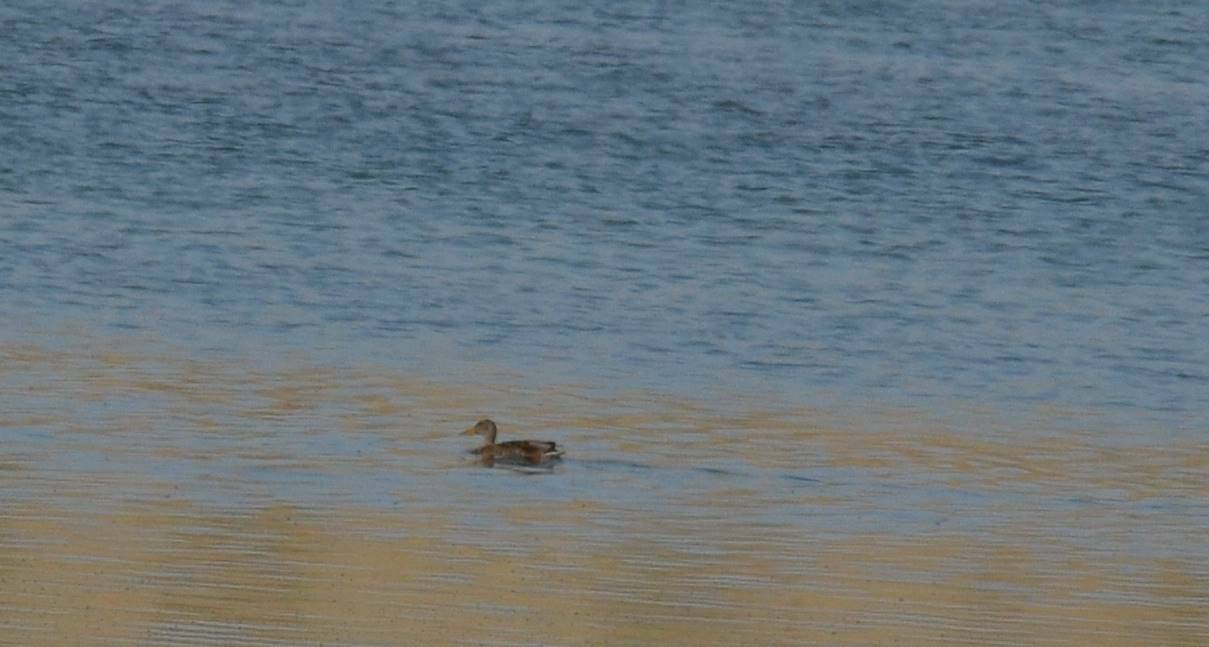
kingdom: Animalia
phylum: Chordata
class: Aves
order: Anseriformes
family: Anatidae
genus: Anas
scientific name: Anas platyrhynchos
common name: Mallard
